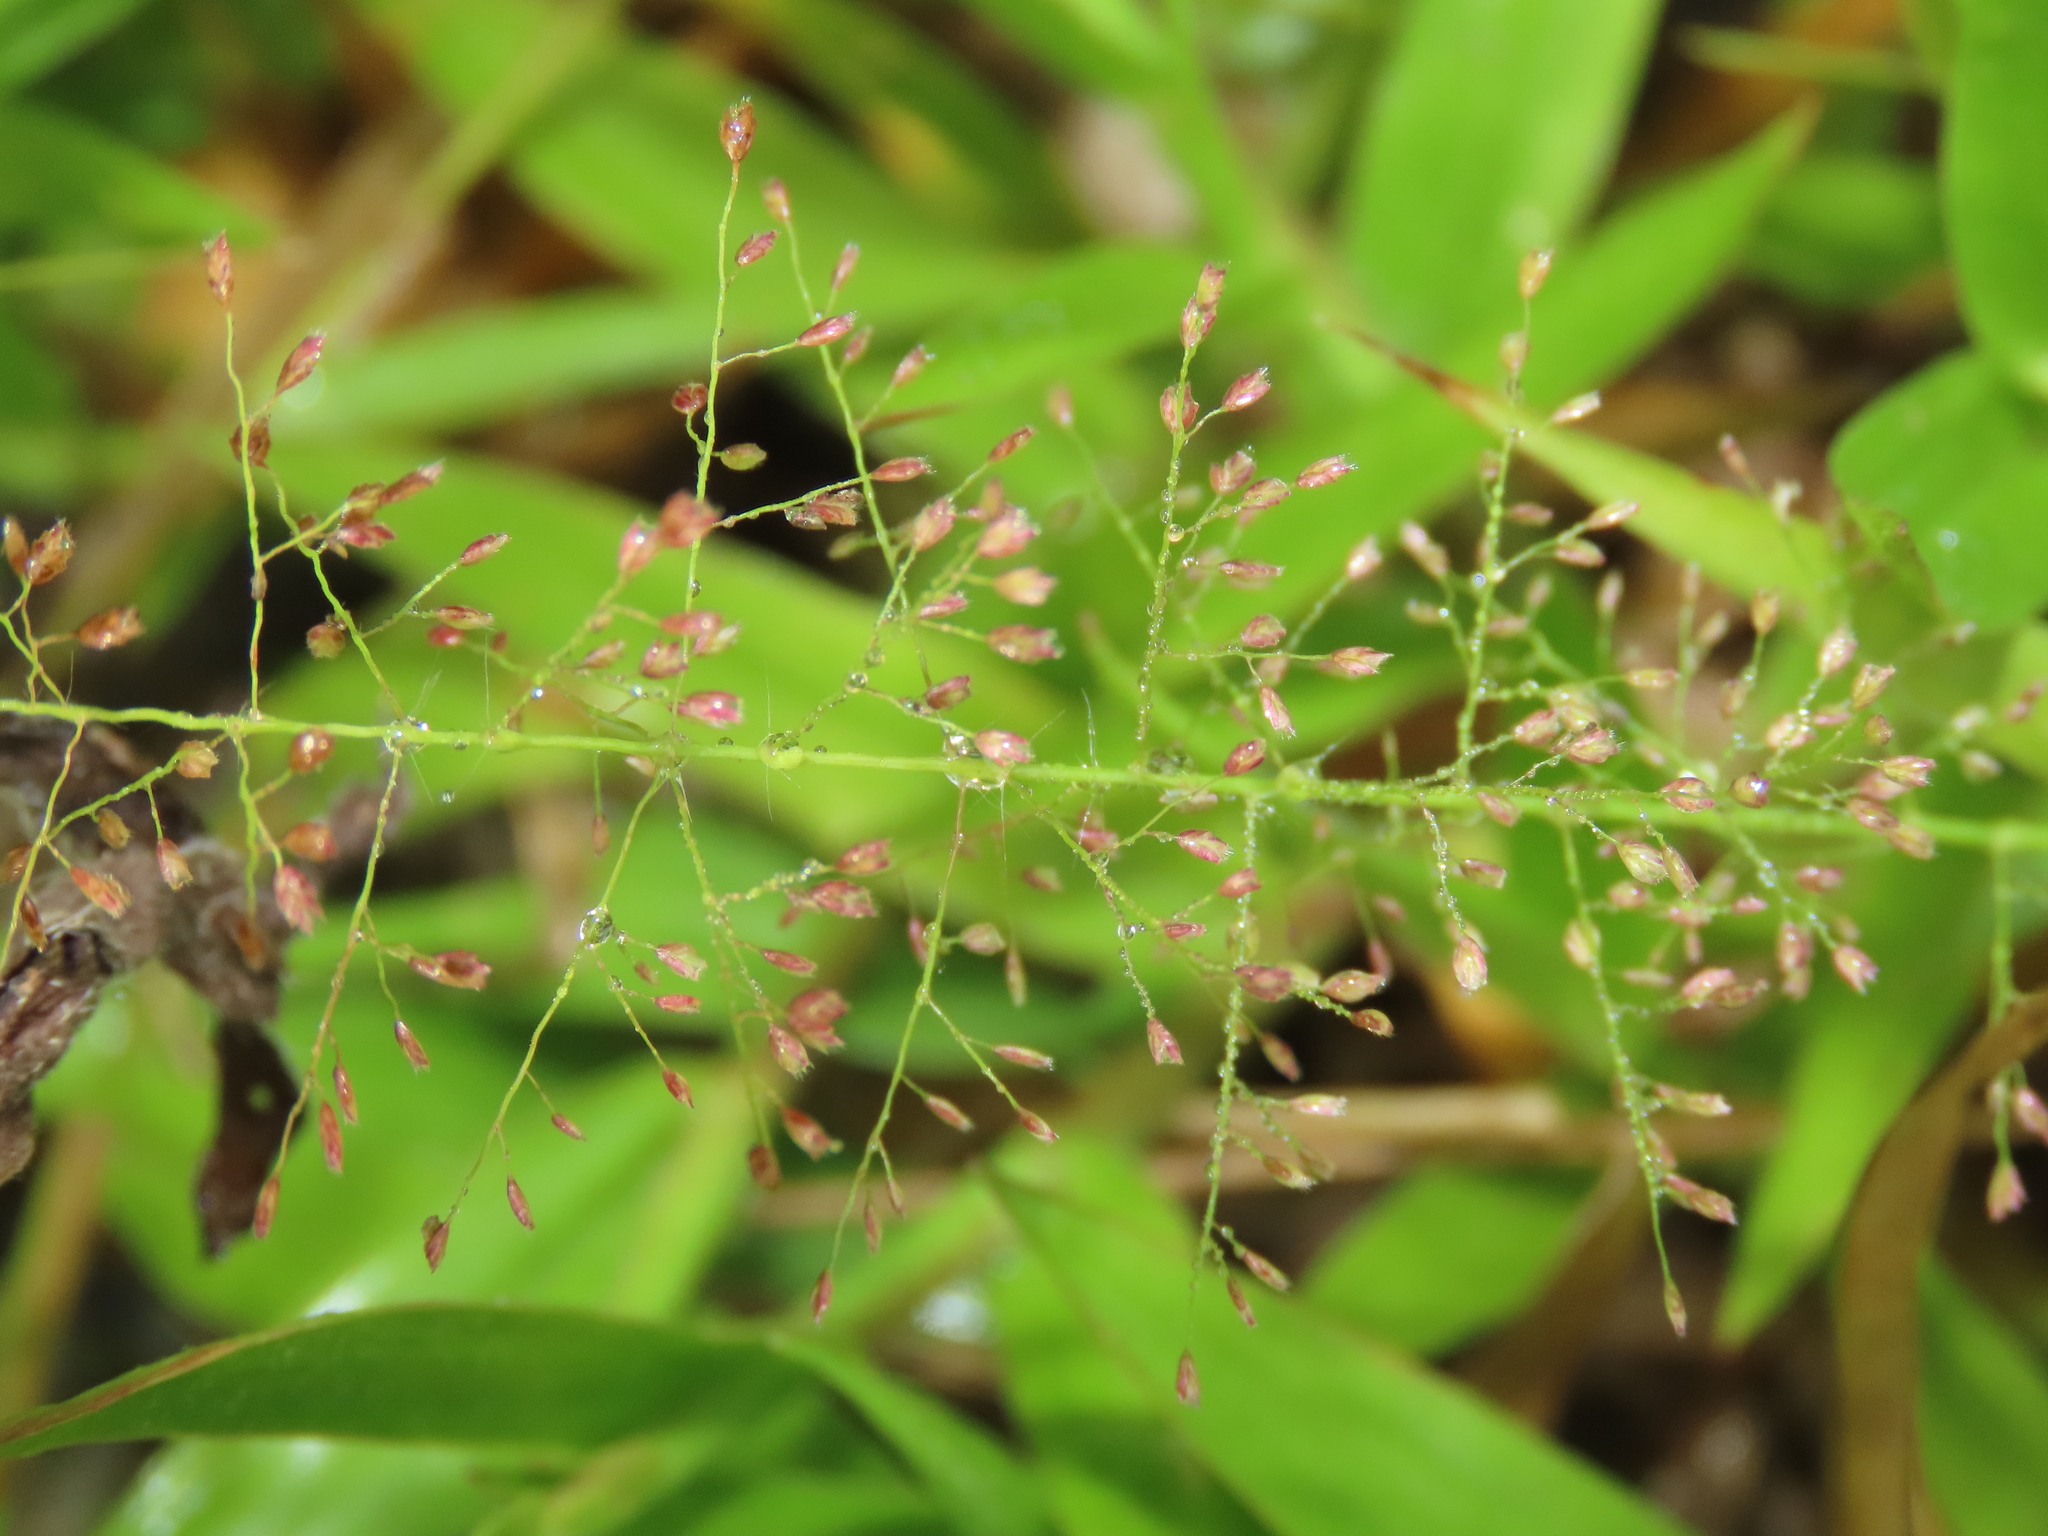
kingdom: Plantae
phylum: Tracheophyta
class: Liliopsida
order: Poales
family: Poaceae
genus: Eragrostis
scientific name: Eragrostis tenella
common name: Japanese lovegrass
